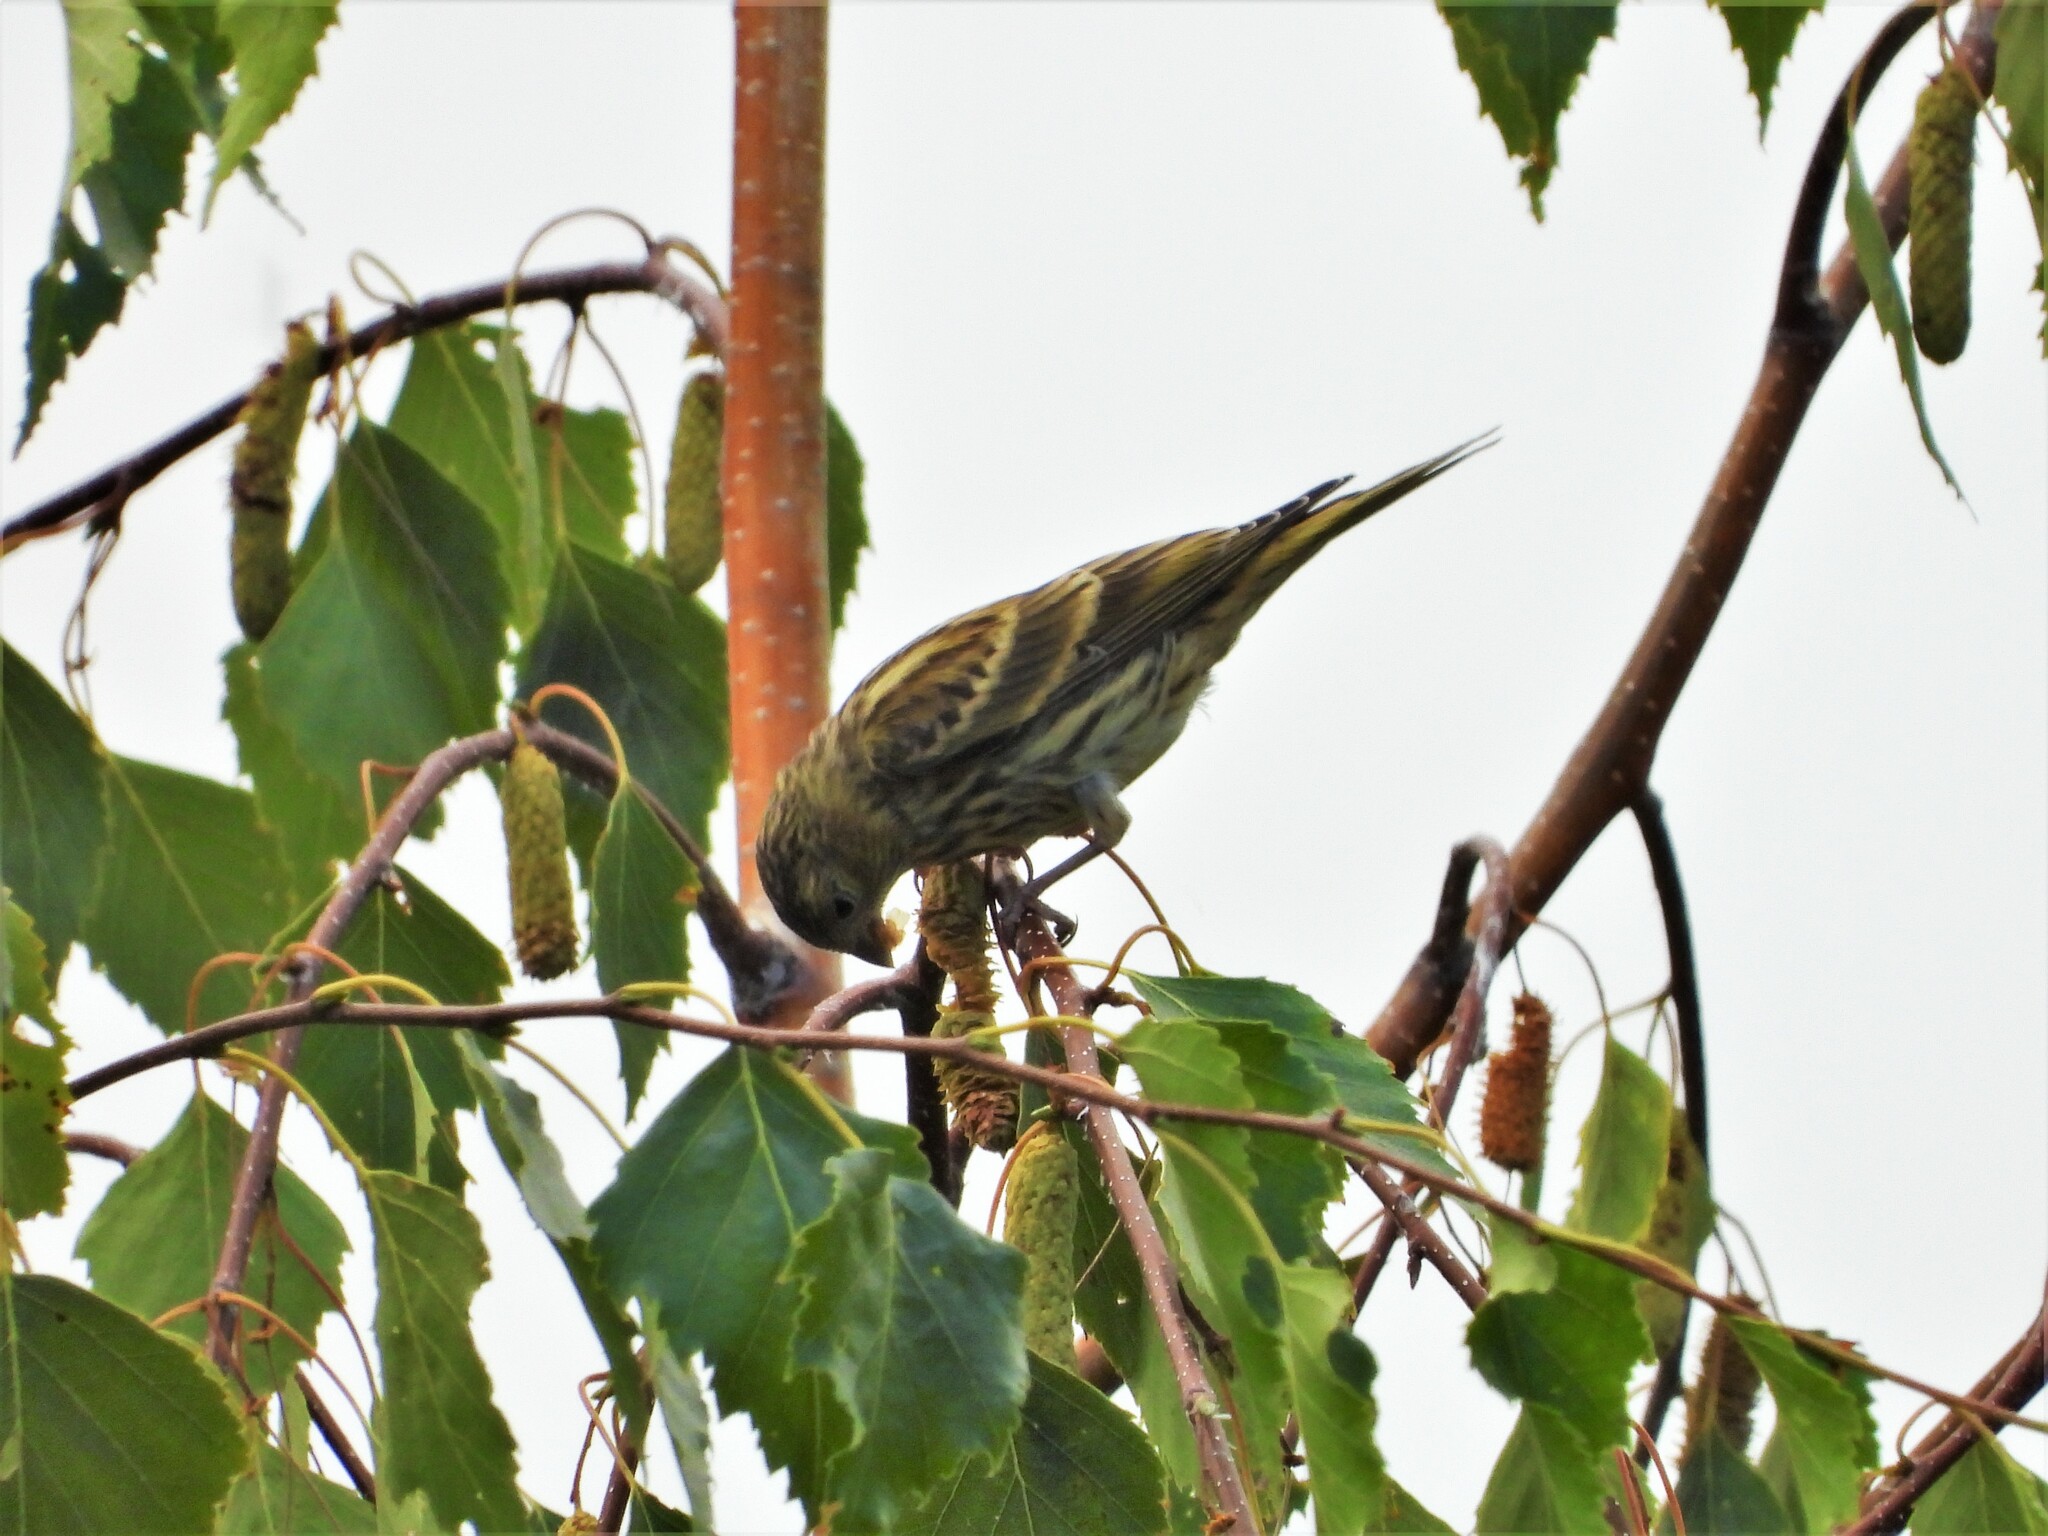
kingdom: Animalia
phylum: Chordata
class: Aves
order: Passeriformes
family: Fringillidae
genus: Serinus
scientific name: Serinus serinus
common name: European serin
